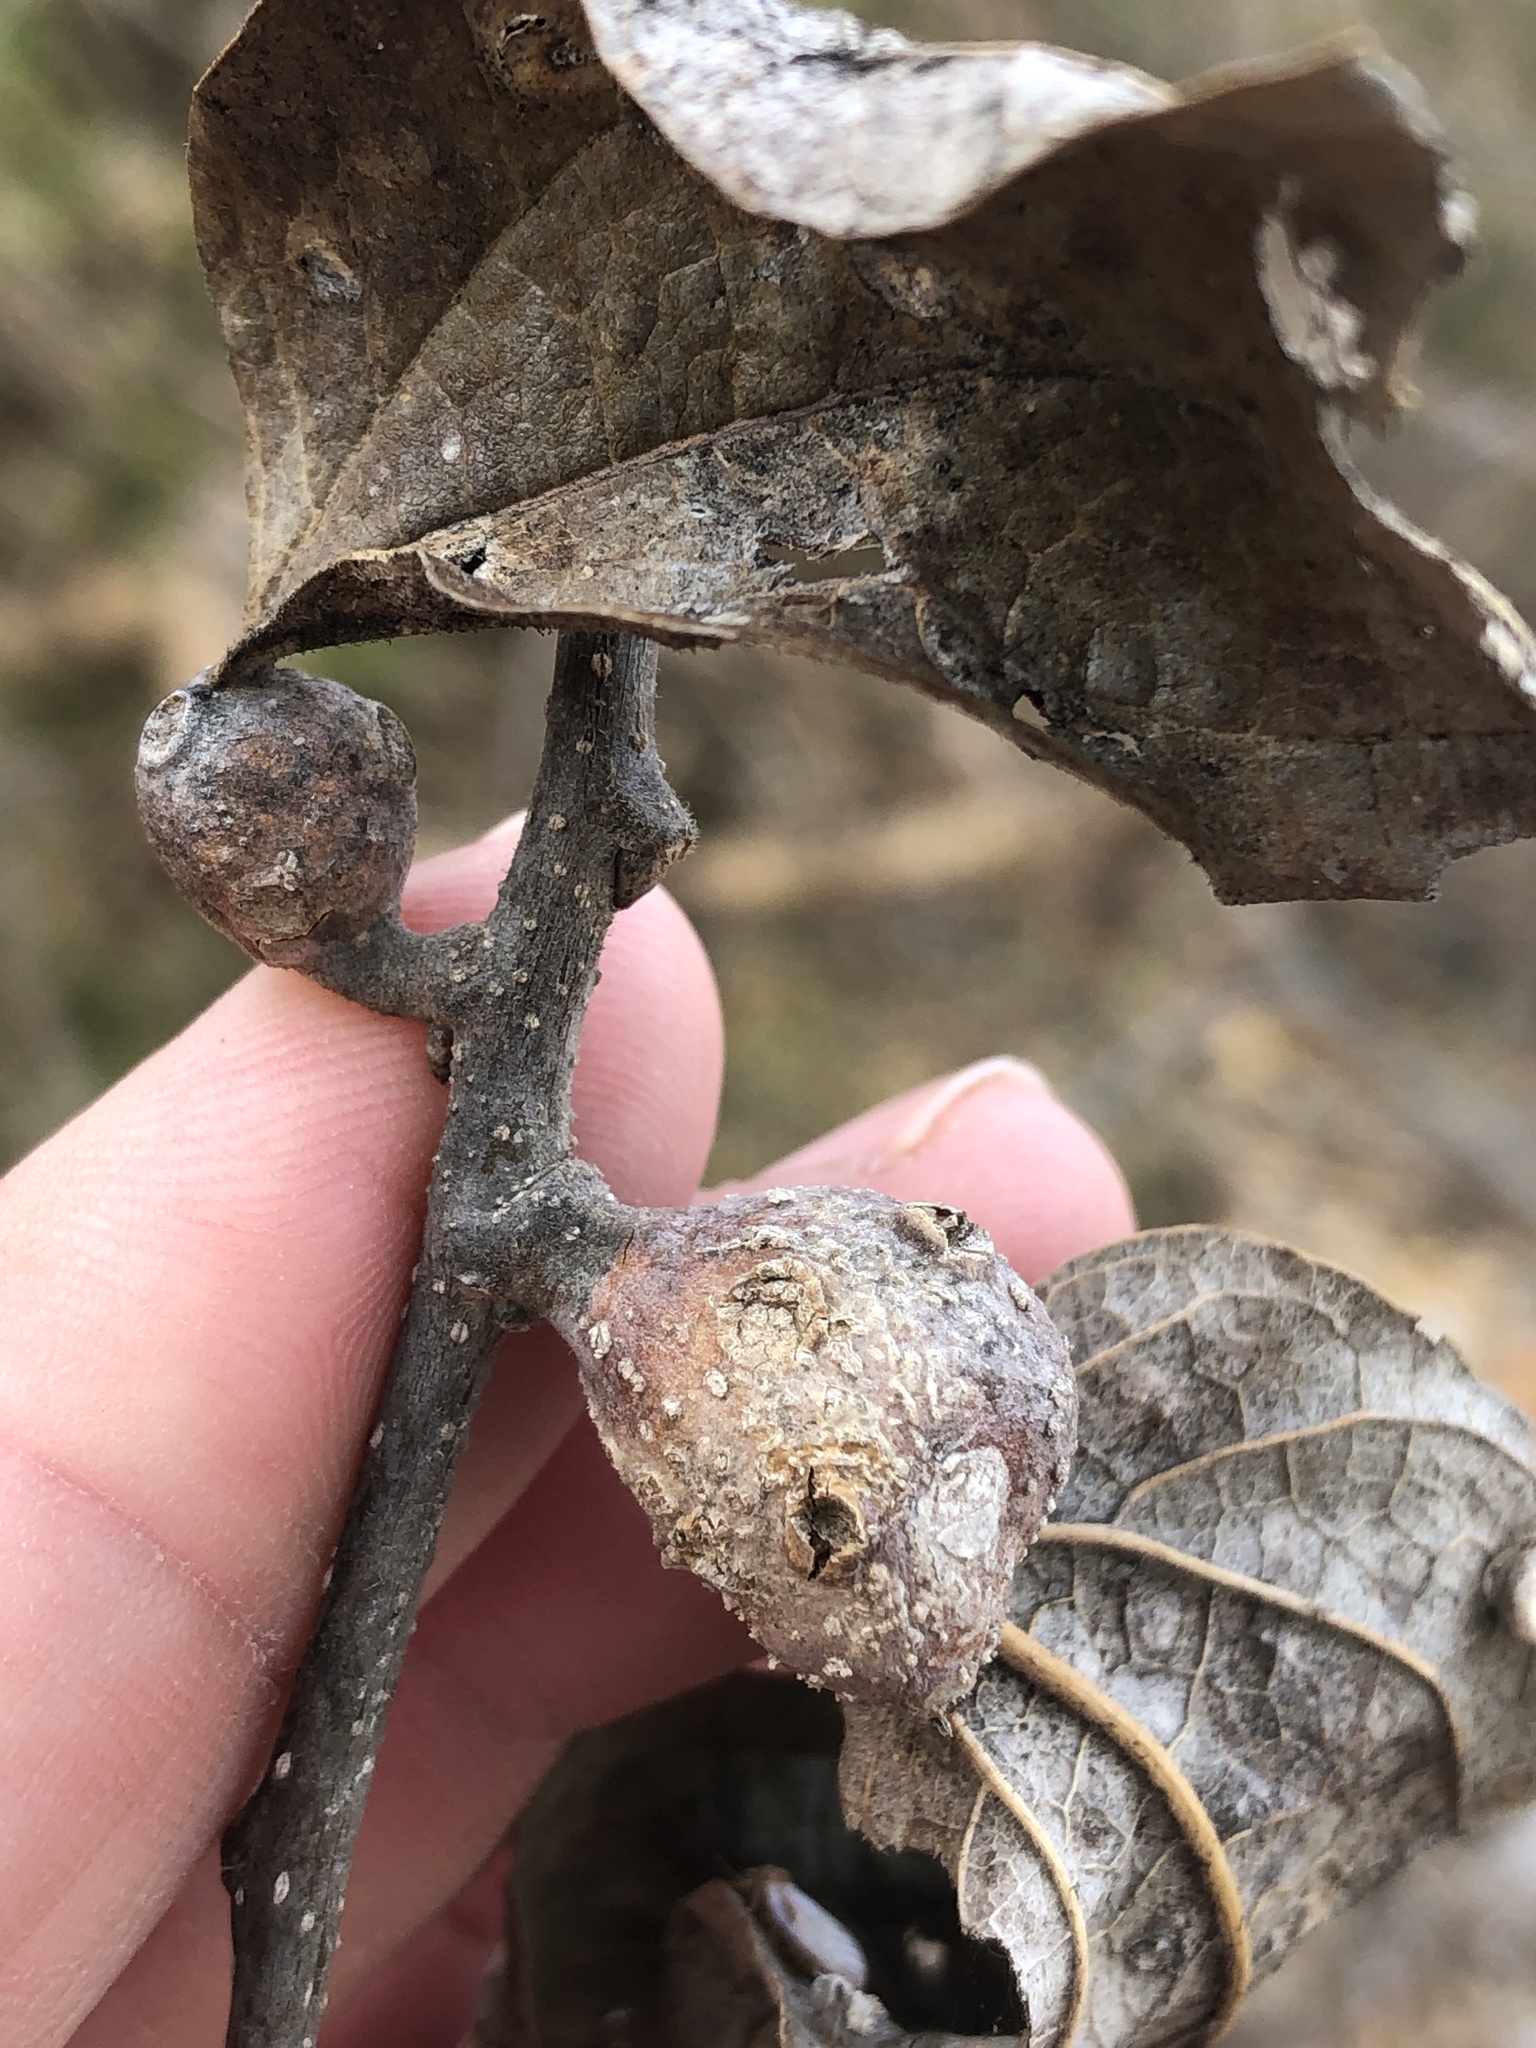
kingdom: Animalia
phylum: Arthropoda
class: Insecta
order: Hemiptera
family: Aphalaridae
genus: Pachypsylla
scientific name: Pachypsylla venusta
